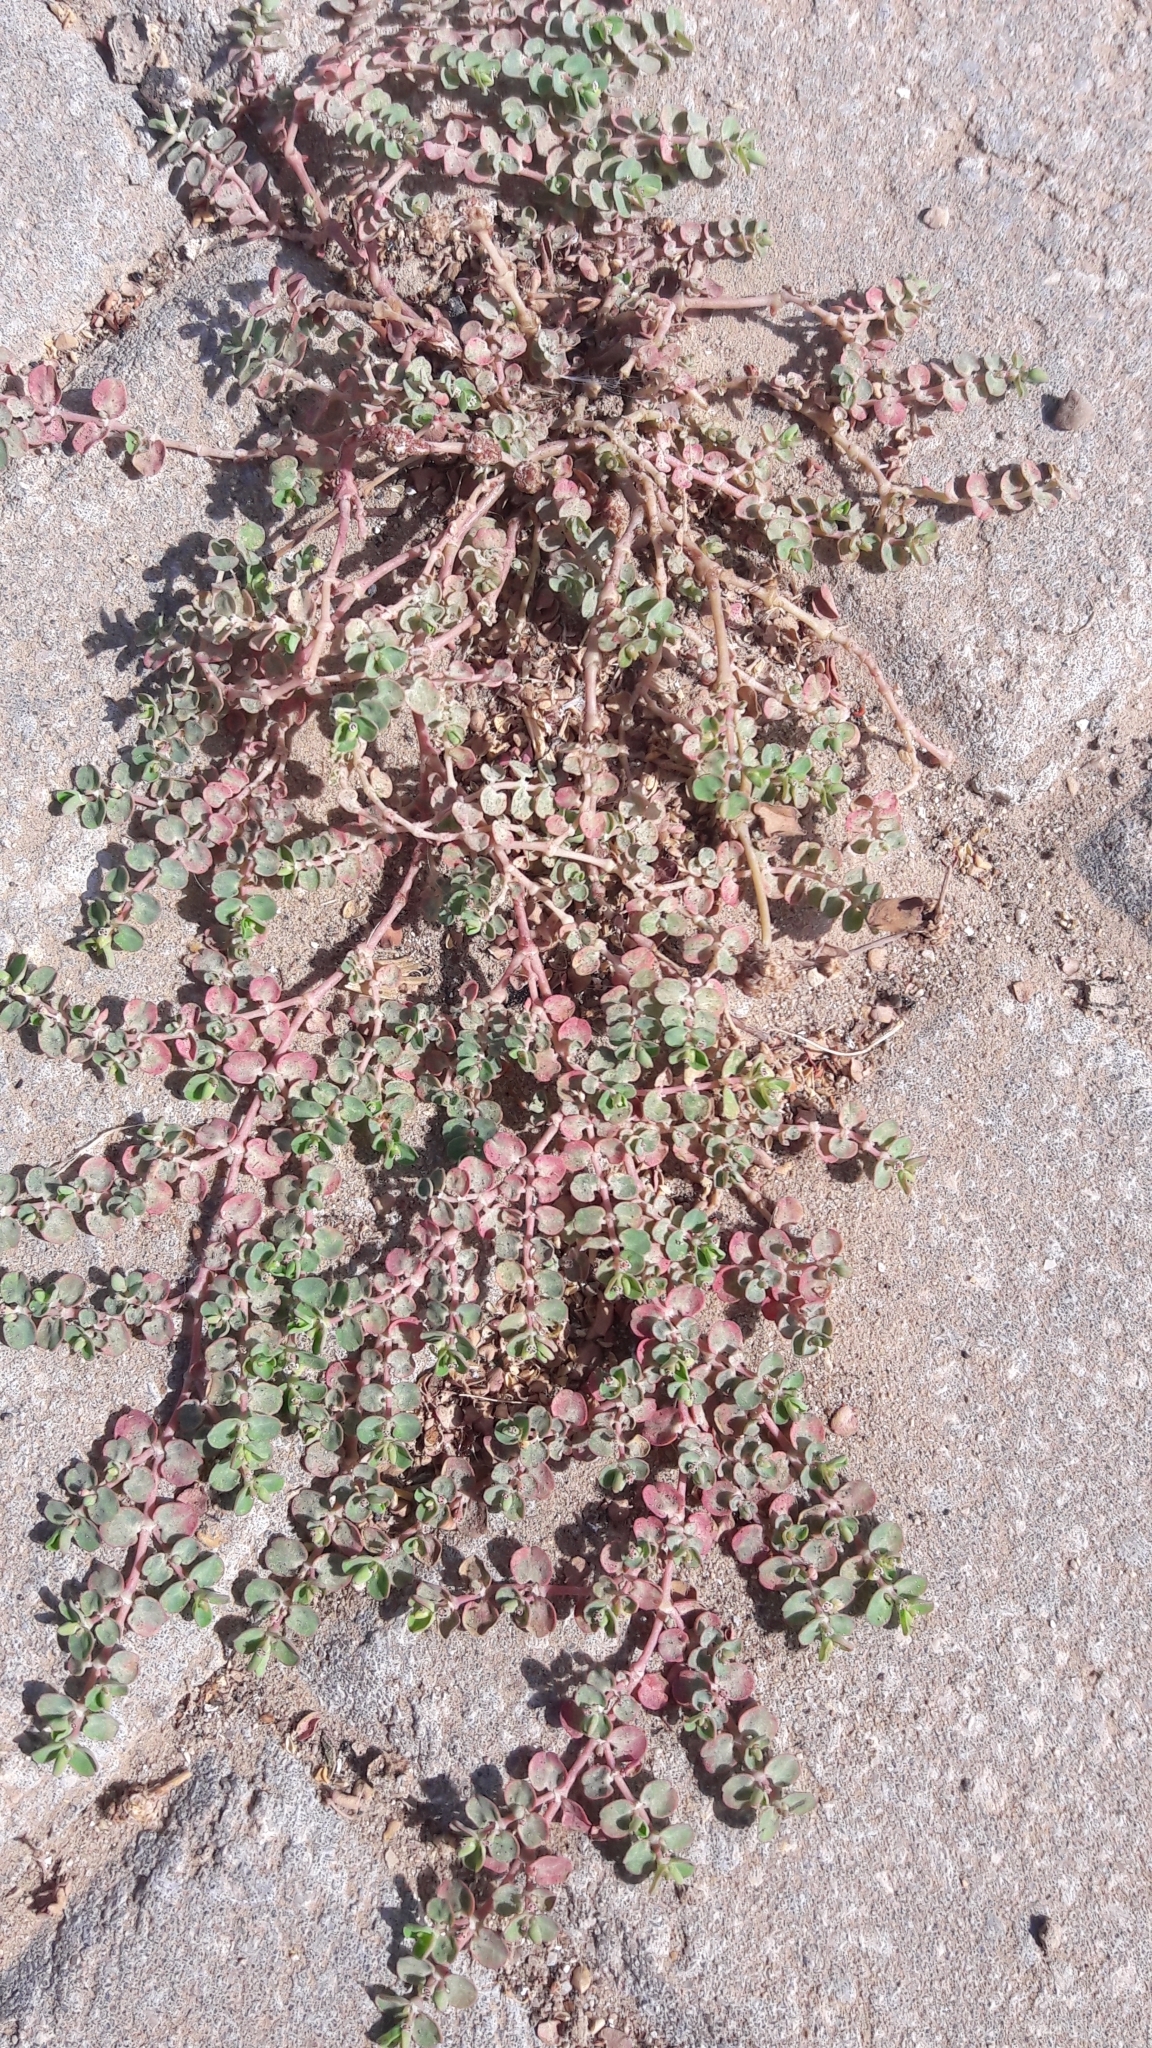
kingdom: Plantae
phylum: Tracheophyta
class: Magnoliopsida
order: Malpighiales
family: Euphorbiaceae
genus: Euphorbia
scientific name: Euphorbia serpens
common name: Matted sandmat
